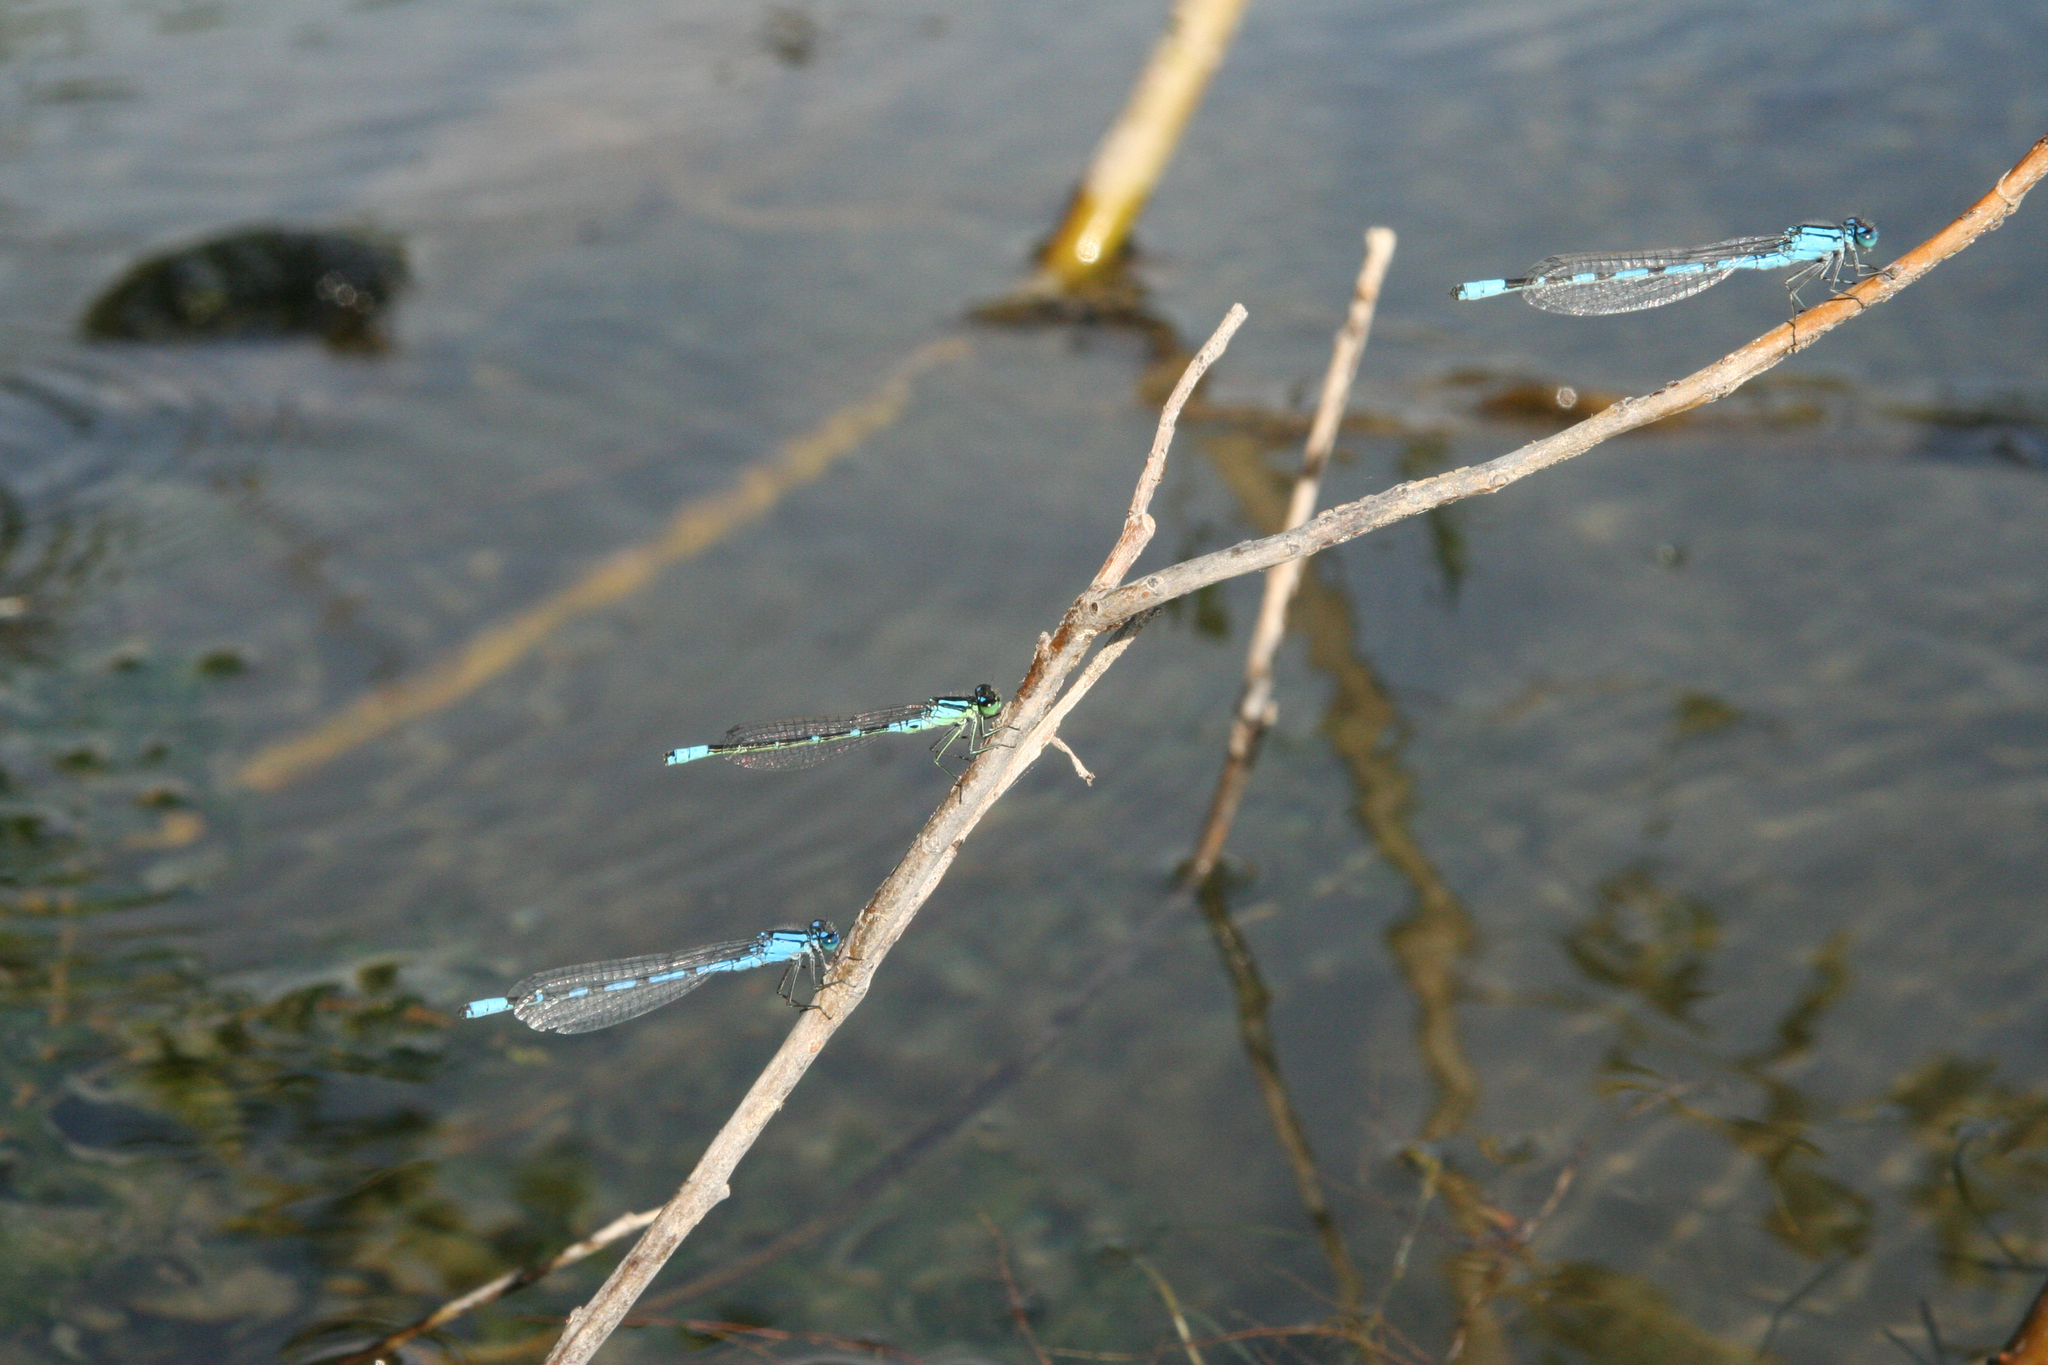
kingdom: Animalia
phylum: Arthropoda
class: Insecta
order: Odonata
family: Coenagrionidae
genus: Coenagrion
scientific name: Coenagrion lunulatum
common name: Irish damselfly
